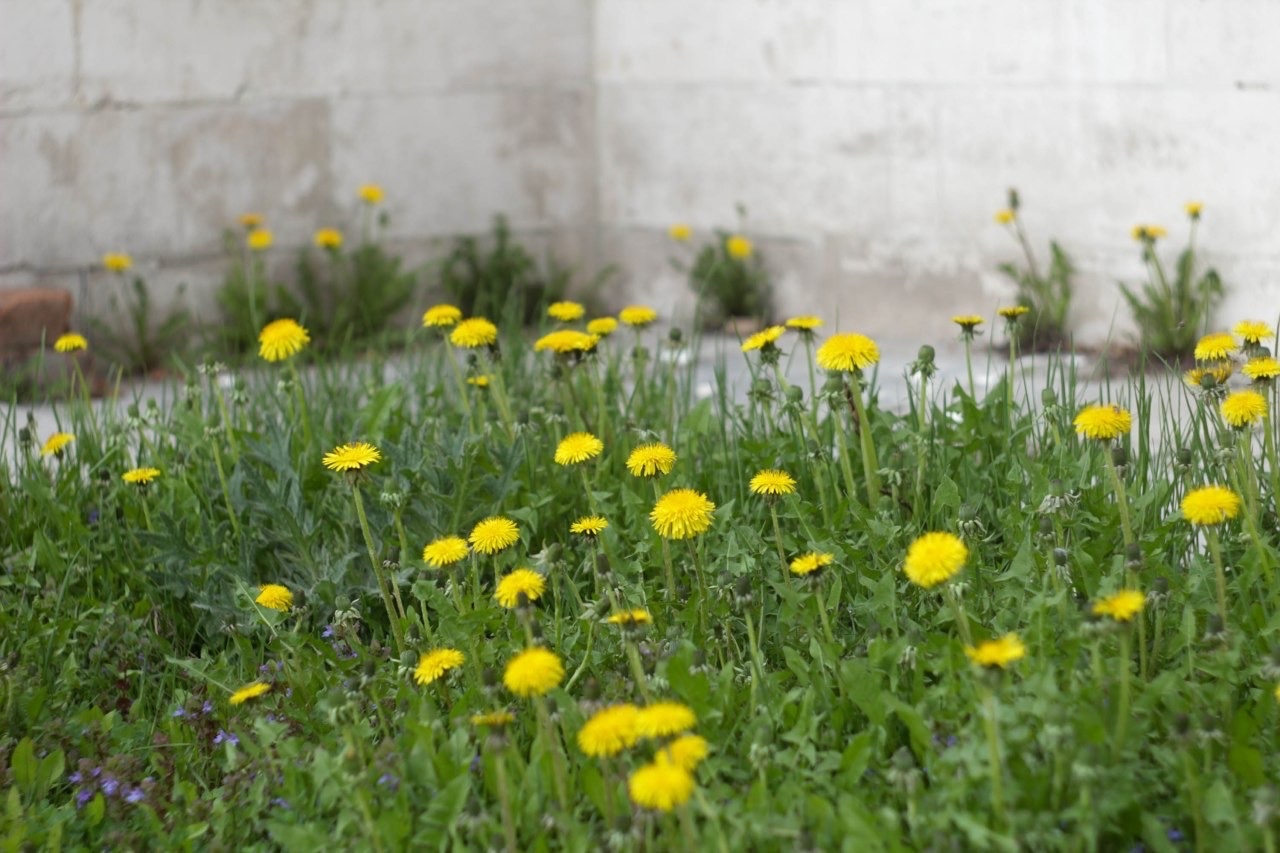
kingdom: Plantae
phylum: Tracheophyta
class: Magnoliopsida
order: Asterales
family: Asteraceae
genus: Taraxacum
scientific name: Taraxacum officinale
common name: Common dandelion
